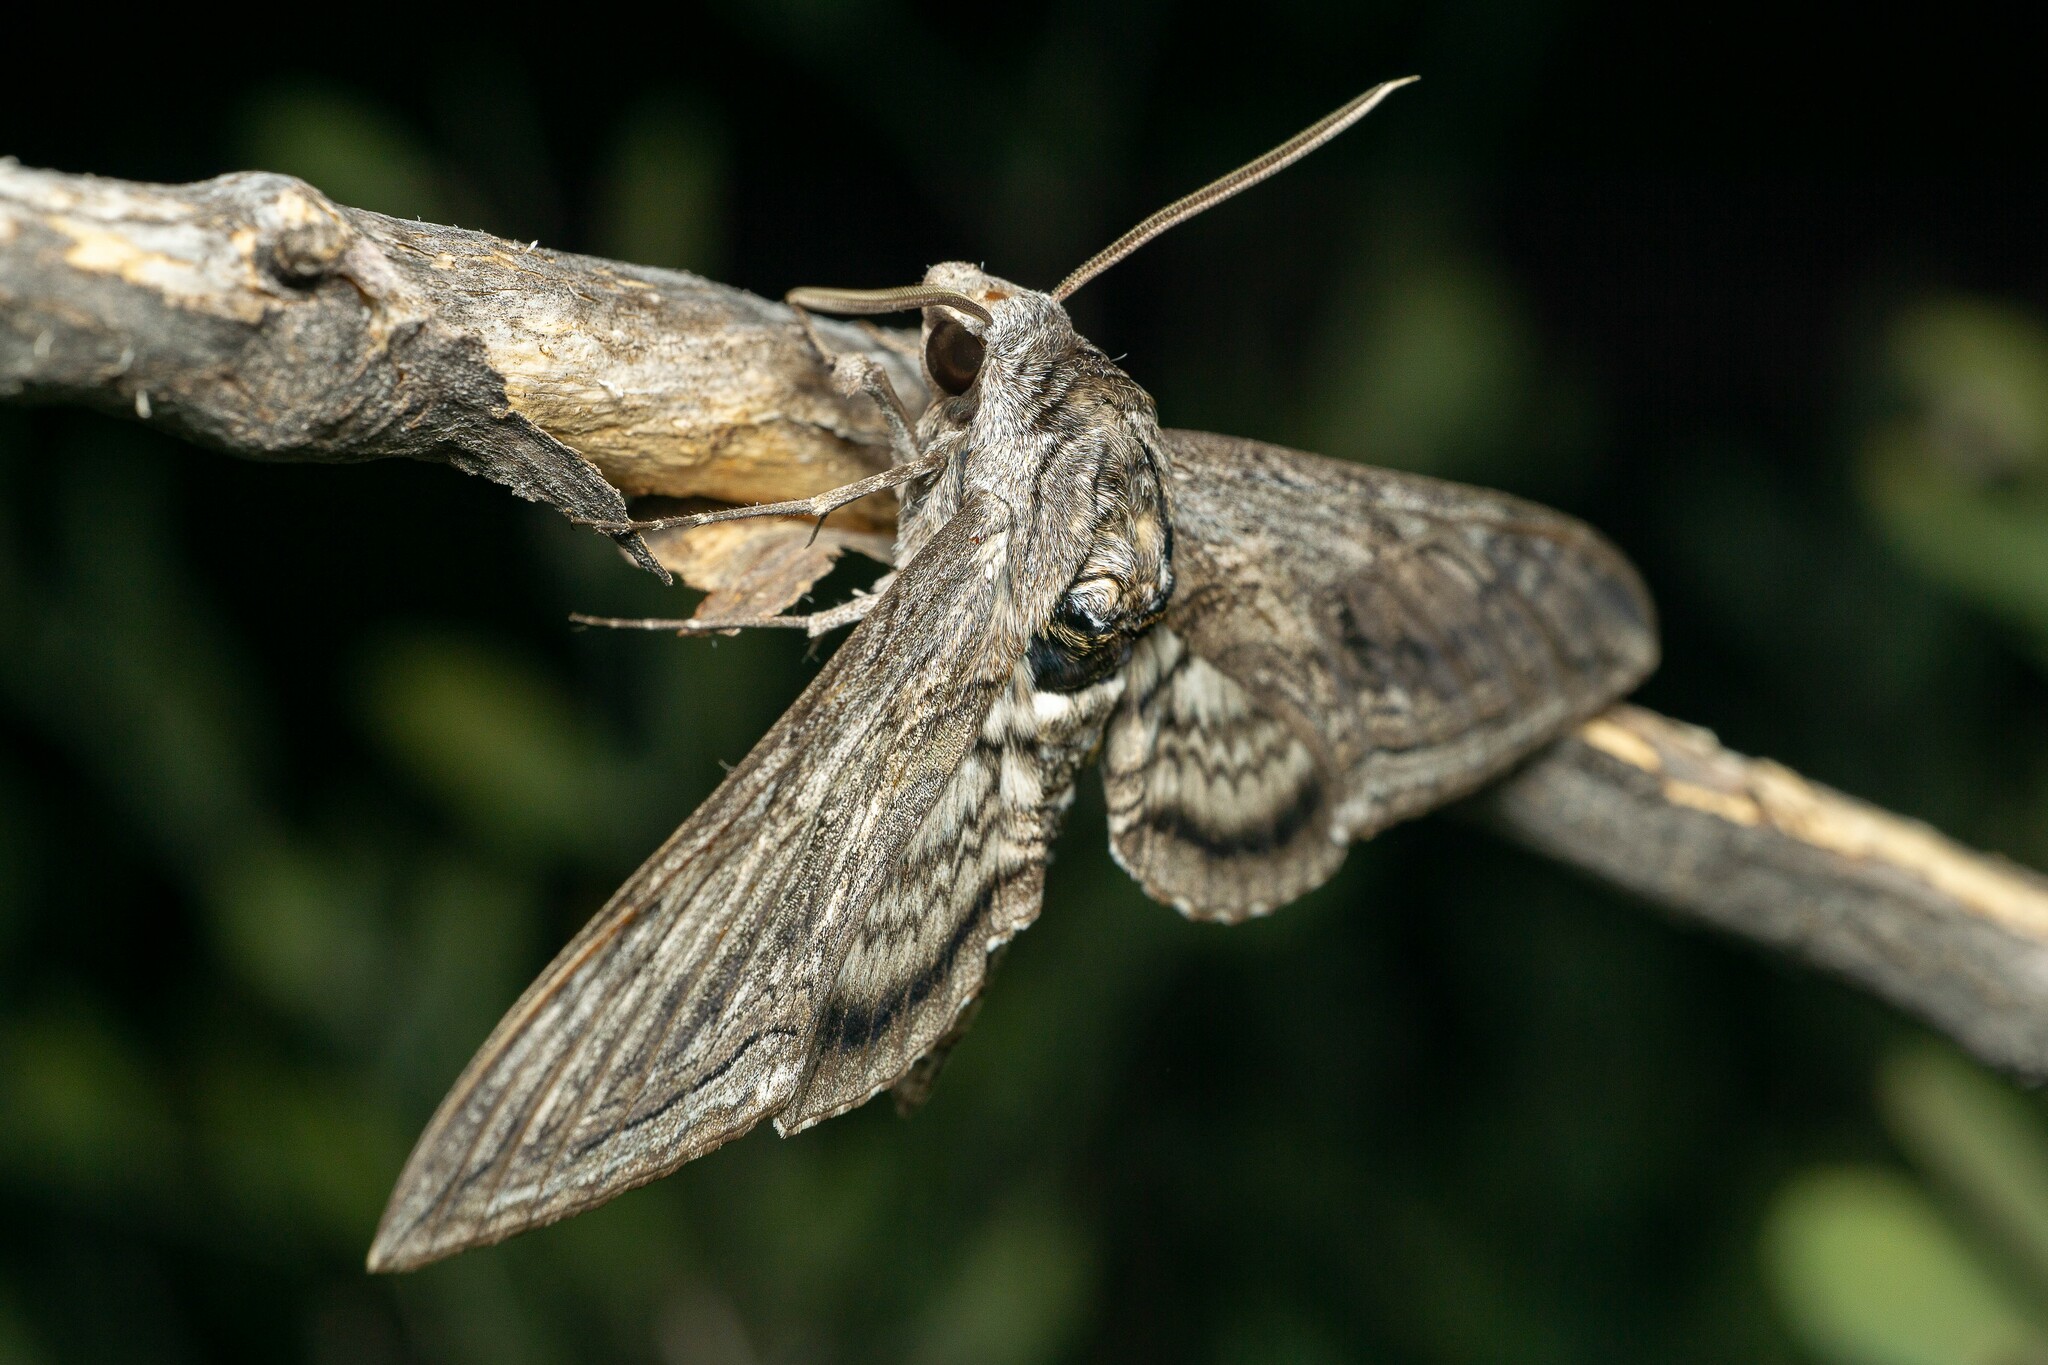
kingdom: Animalia
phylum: Arthropoda
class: Insecta
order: Lepidoptera
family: Sphingidae
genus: Manduca
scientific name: Manduca quinquemaculatus
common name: Five-spotted hawk-moth
